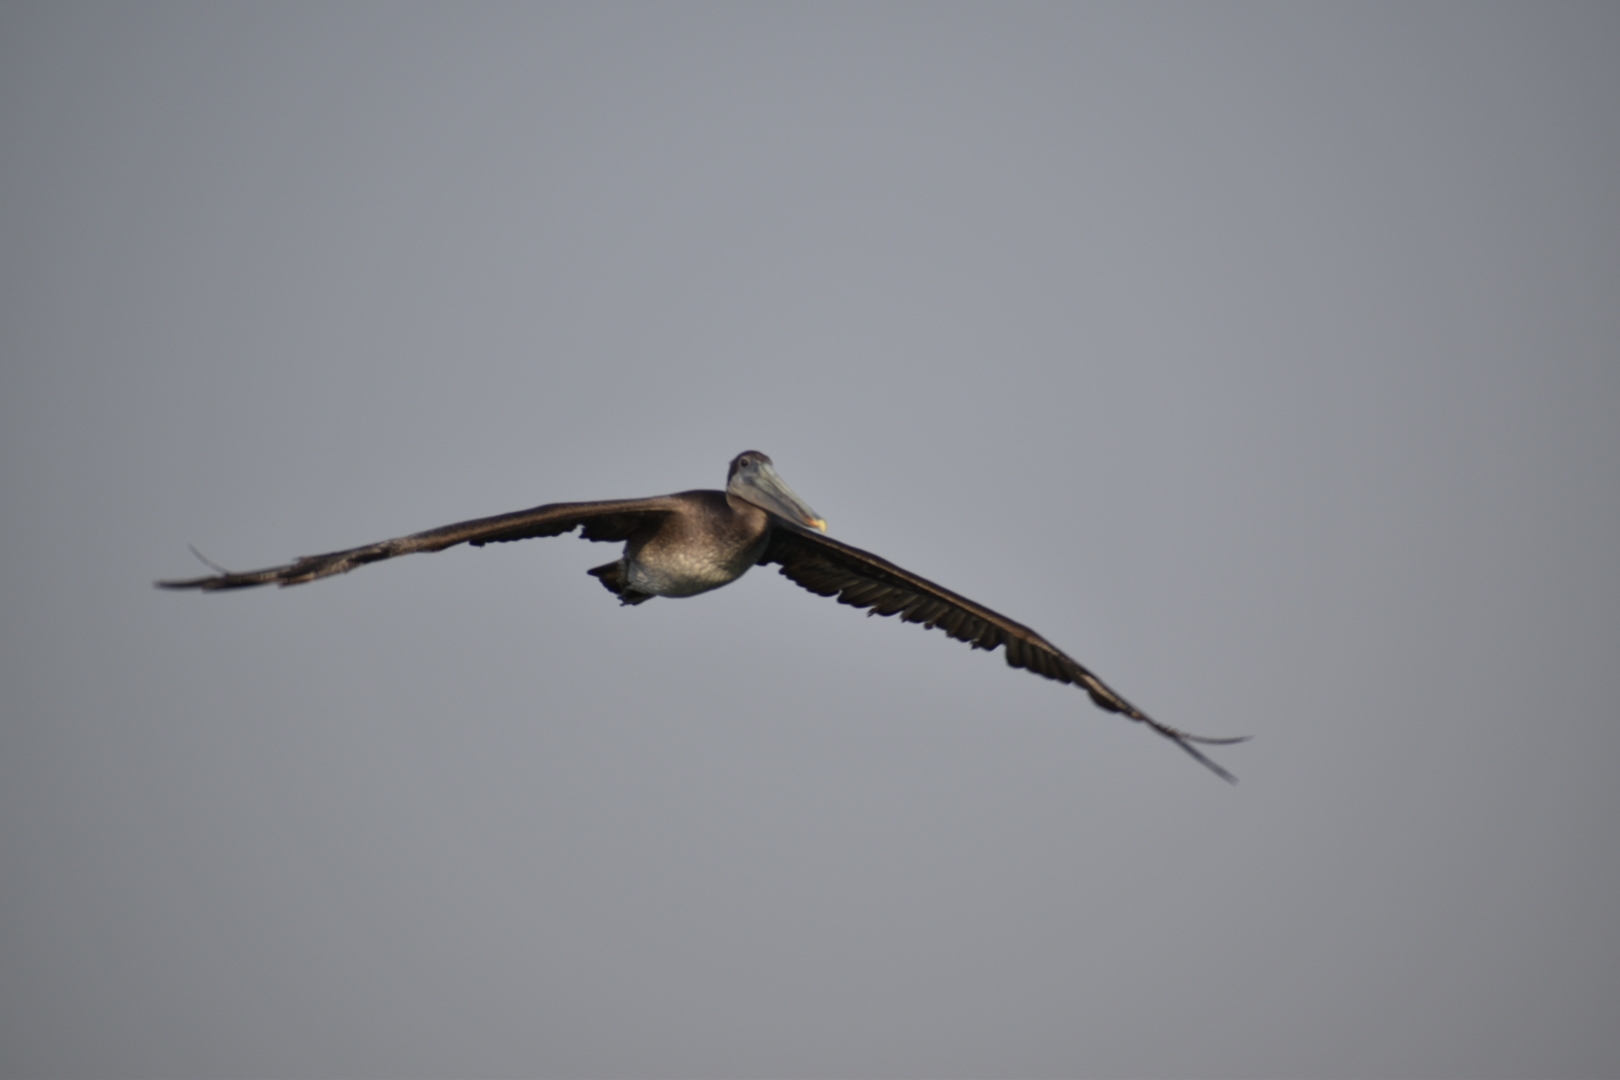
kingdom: Animalia
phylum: Chordata
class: Aves
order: Pelecaniformes
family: Pelecanidae
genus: Pelecanus
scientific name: Pelecanus occidentalis
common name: Brown pelican
